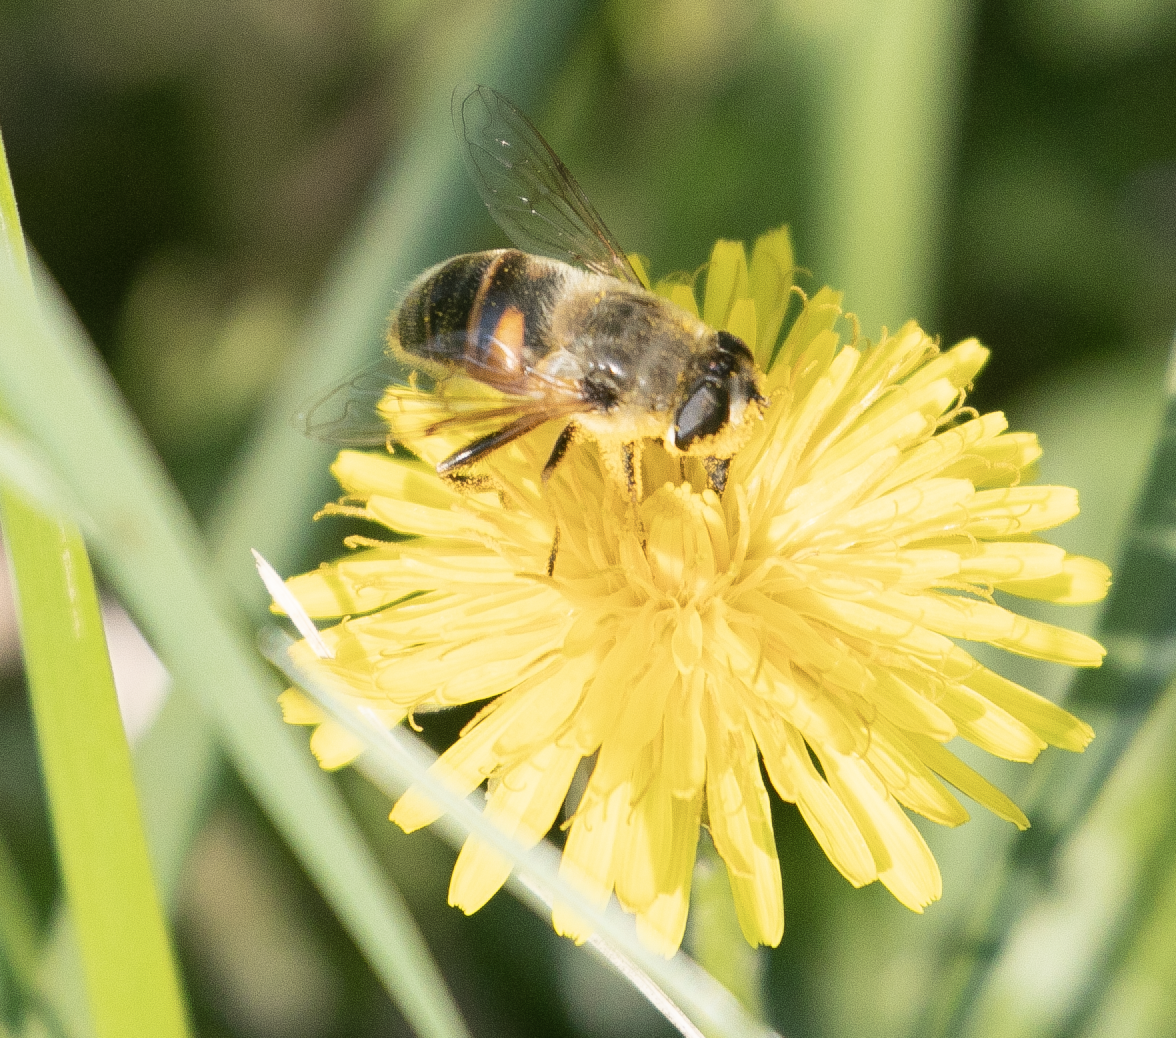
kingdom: Animalia
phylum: Arthropoda
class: Insecta
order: Diptera
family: Syrphidae
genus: Eristalis
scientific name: Eristalis tenax
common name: Drone fly
